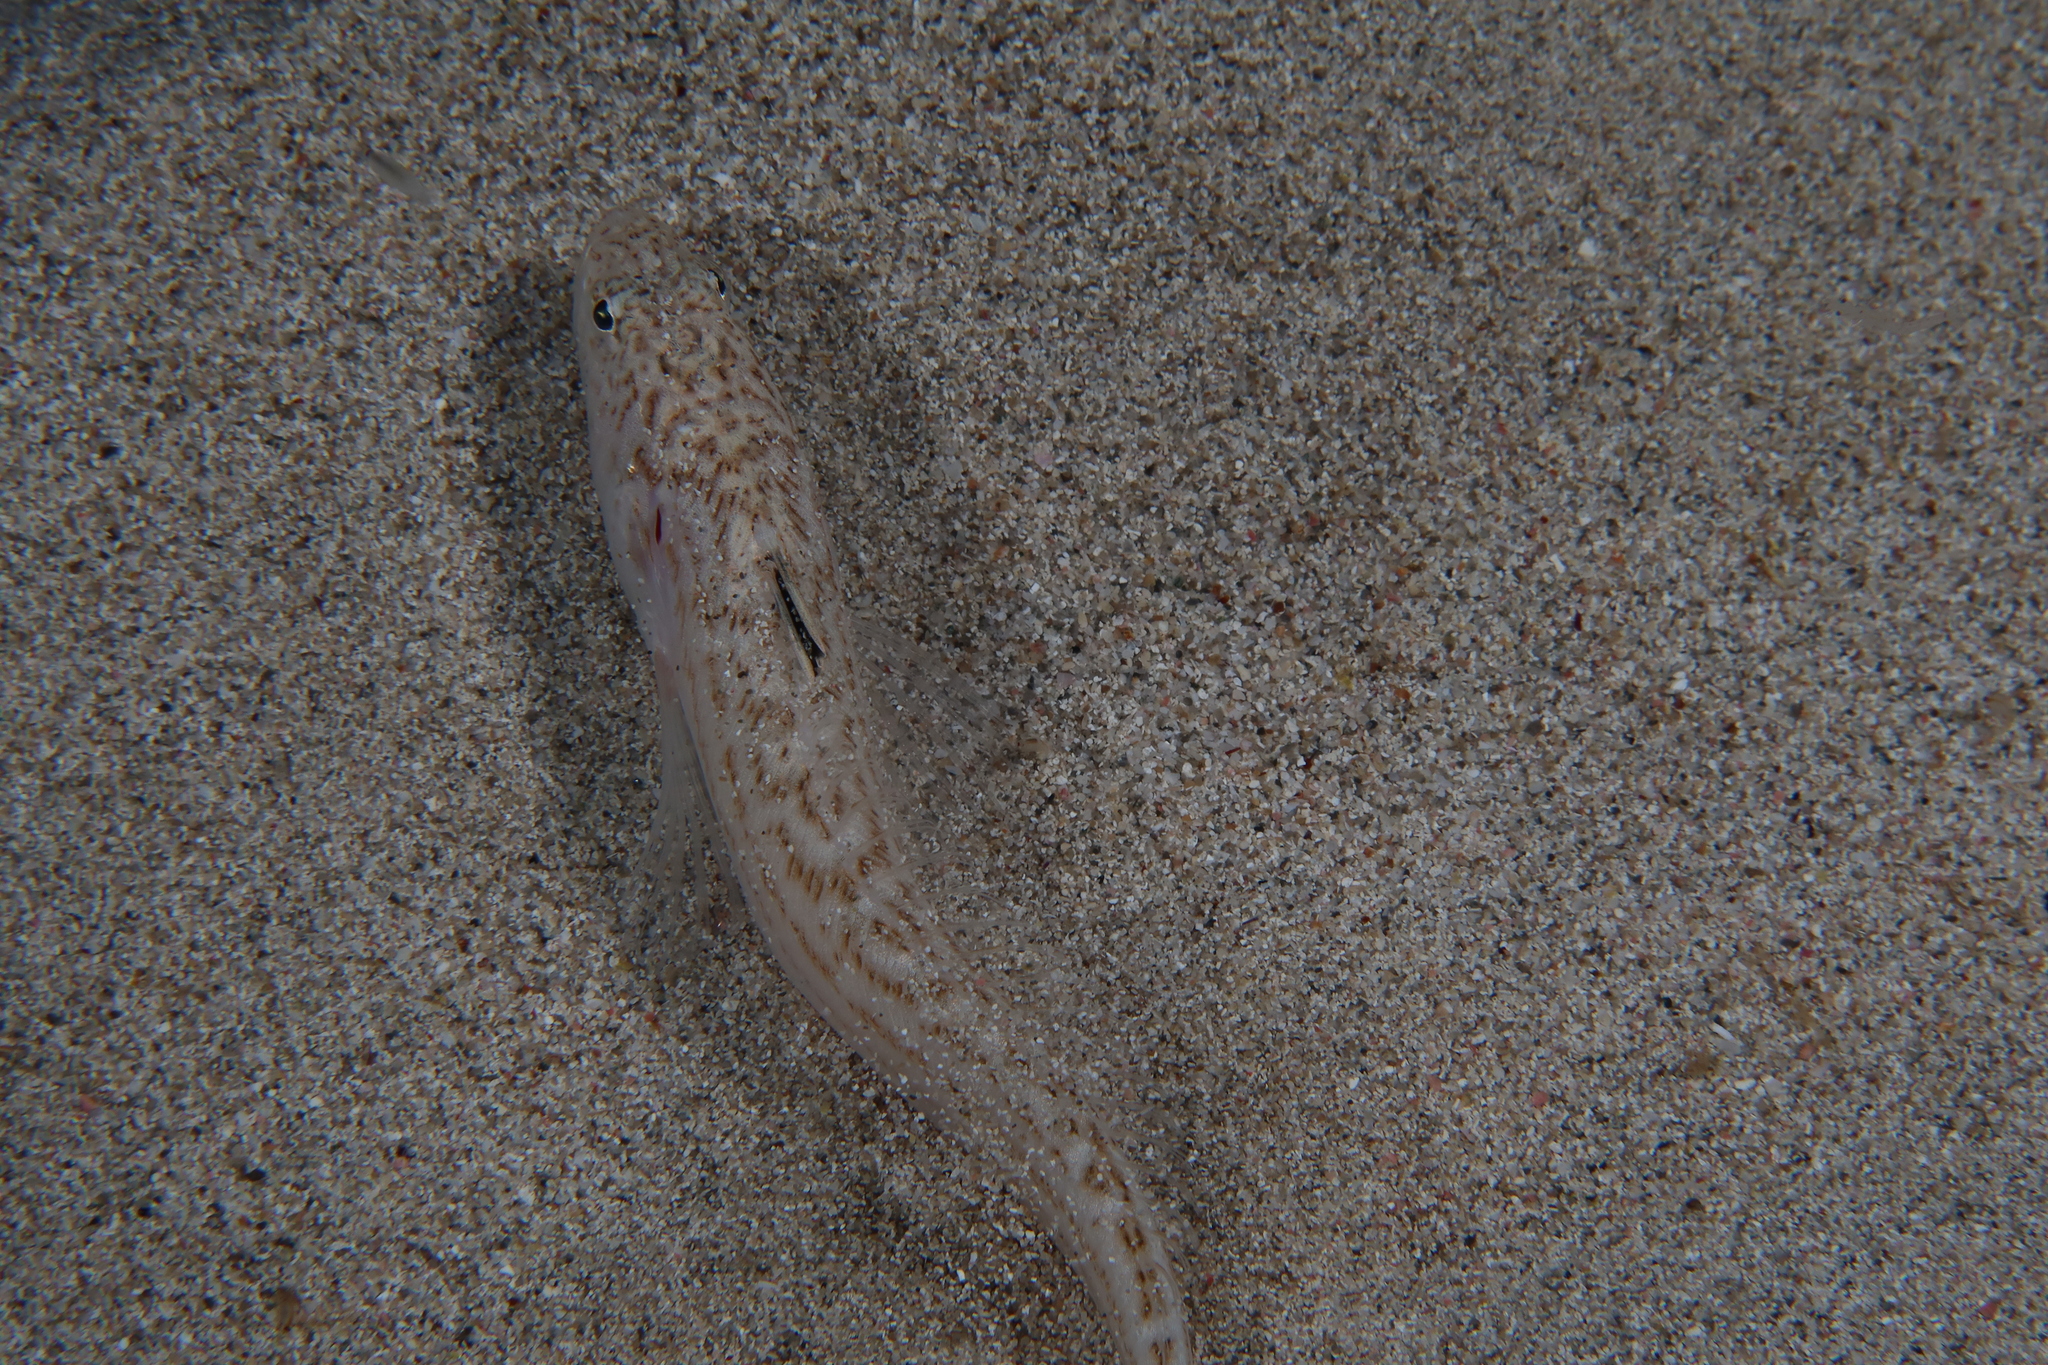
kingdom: Animalia
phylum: Chordata
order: Perciformes
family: Trachinidae
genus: Echiichthys
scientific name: Echiichthys vipera
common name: Lesser weever
